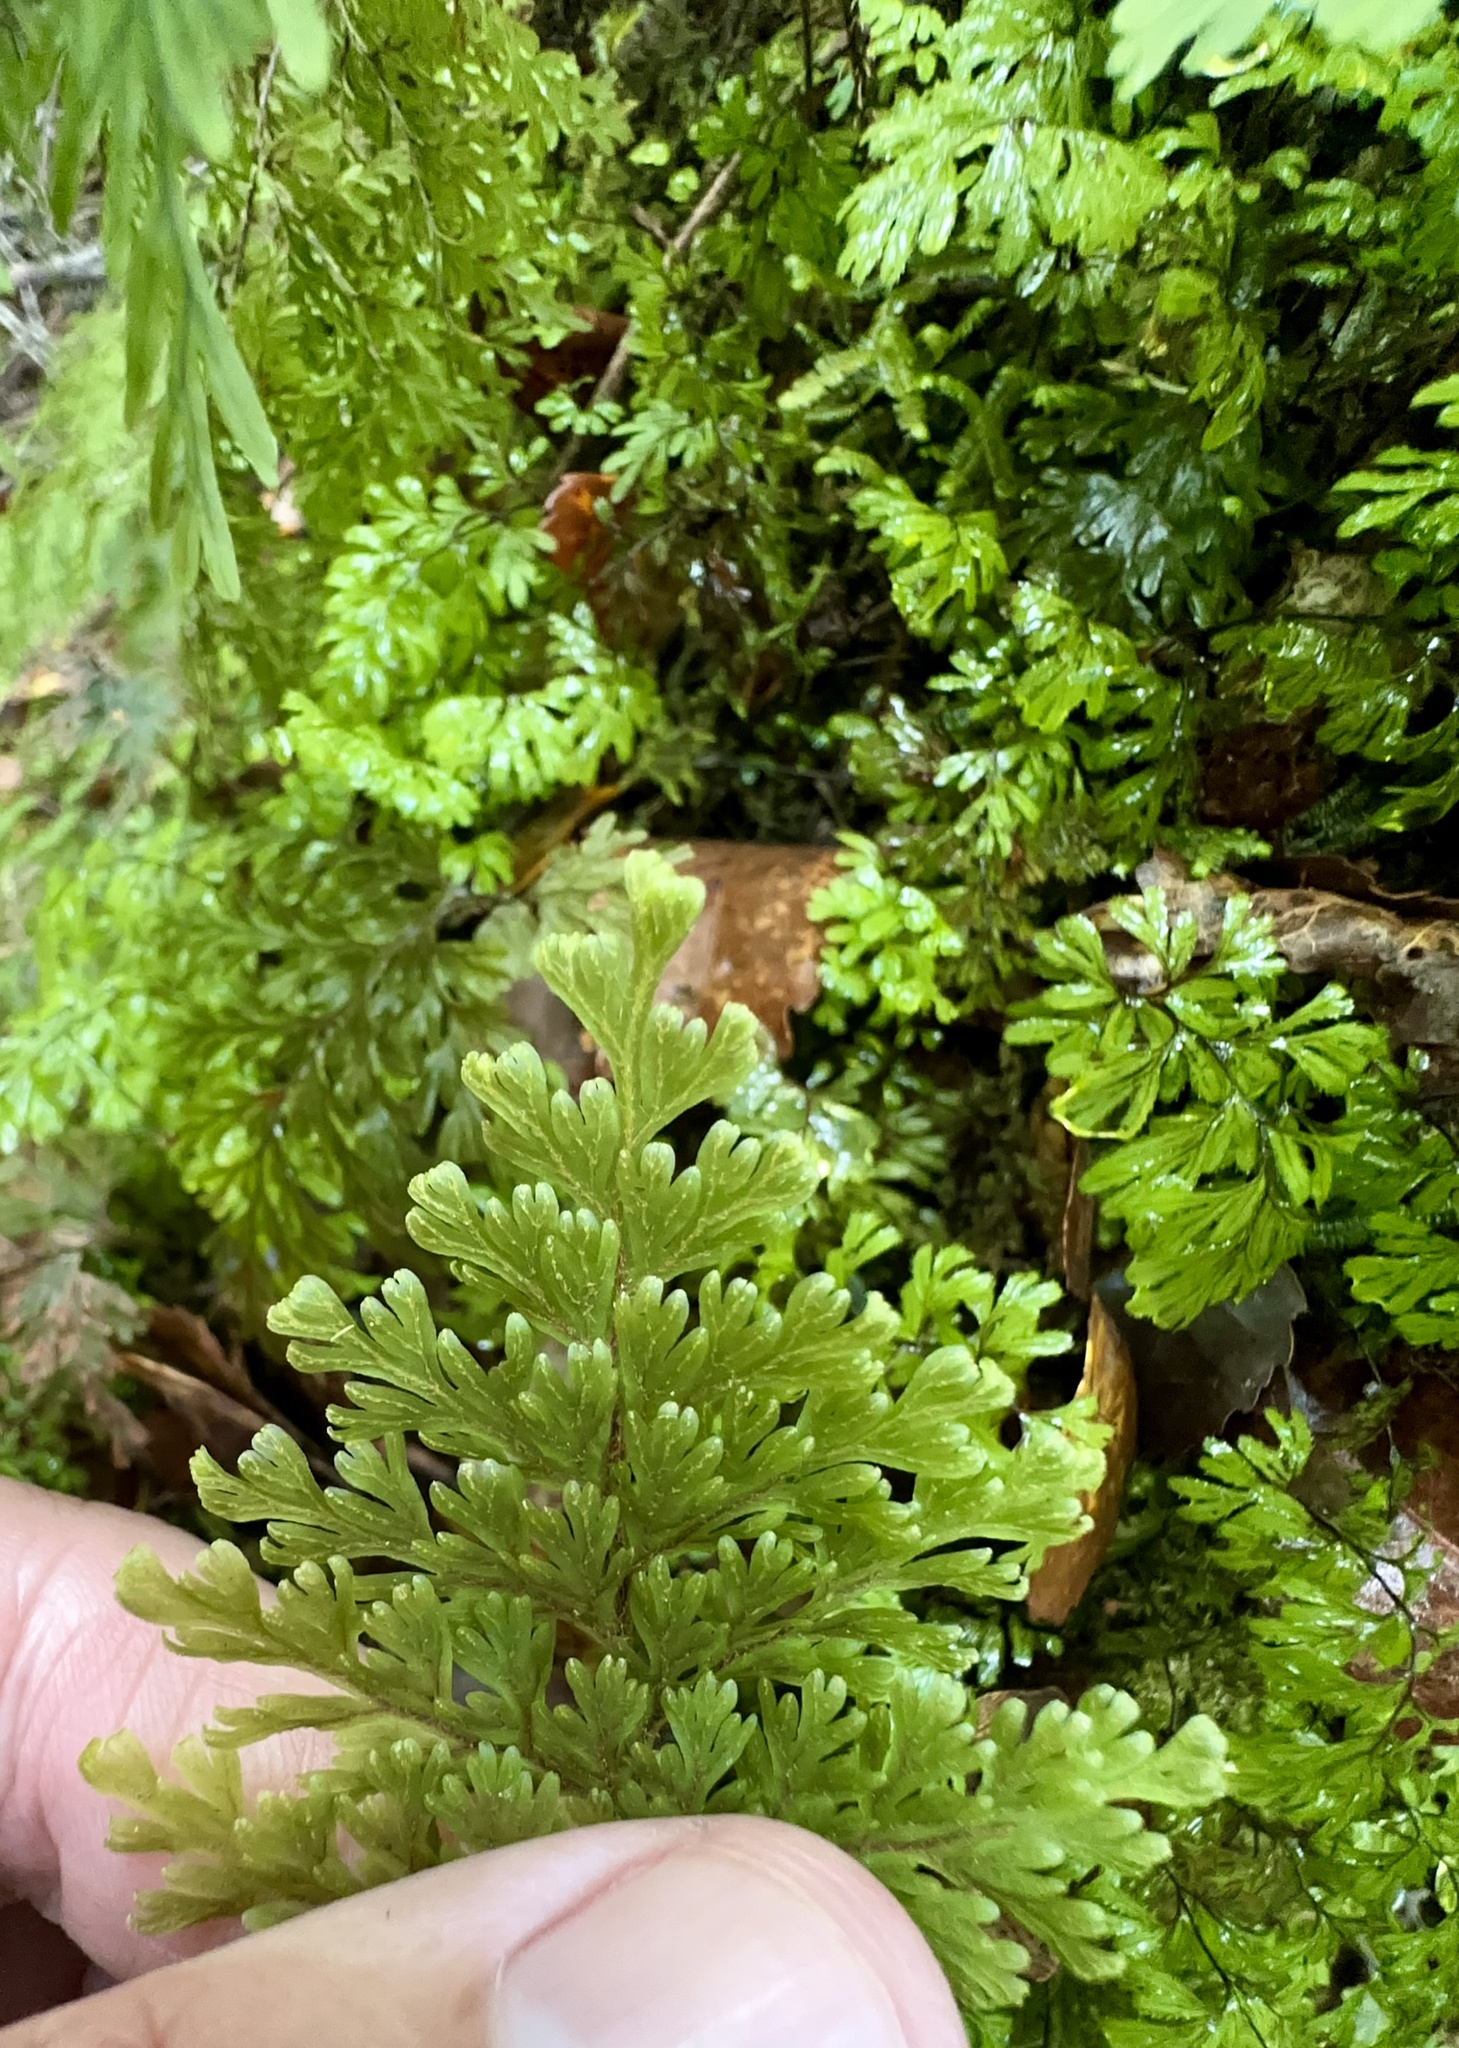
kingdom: Plantae
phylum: Tracheophyta
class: Polypodiopsida
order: Hymenophyllales
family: Hymenophyllaceae
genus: Hymenophyllum
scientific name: Hymenophyllum scabrum
